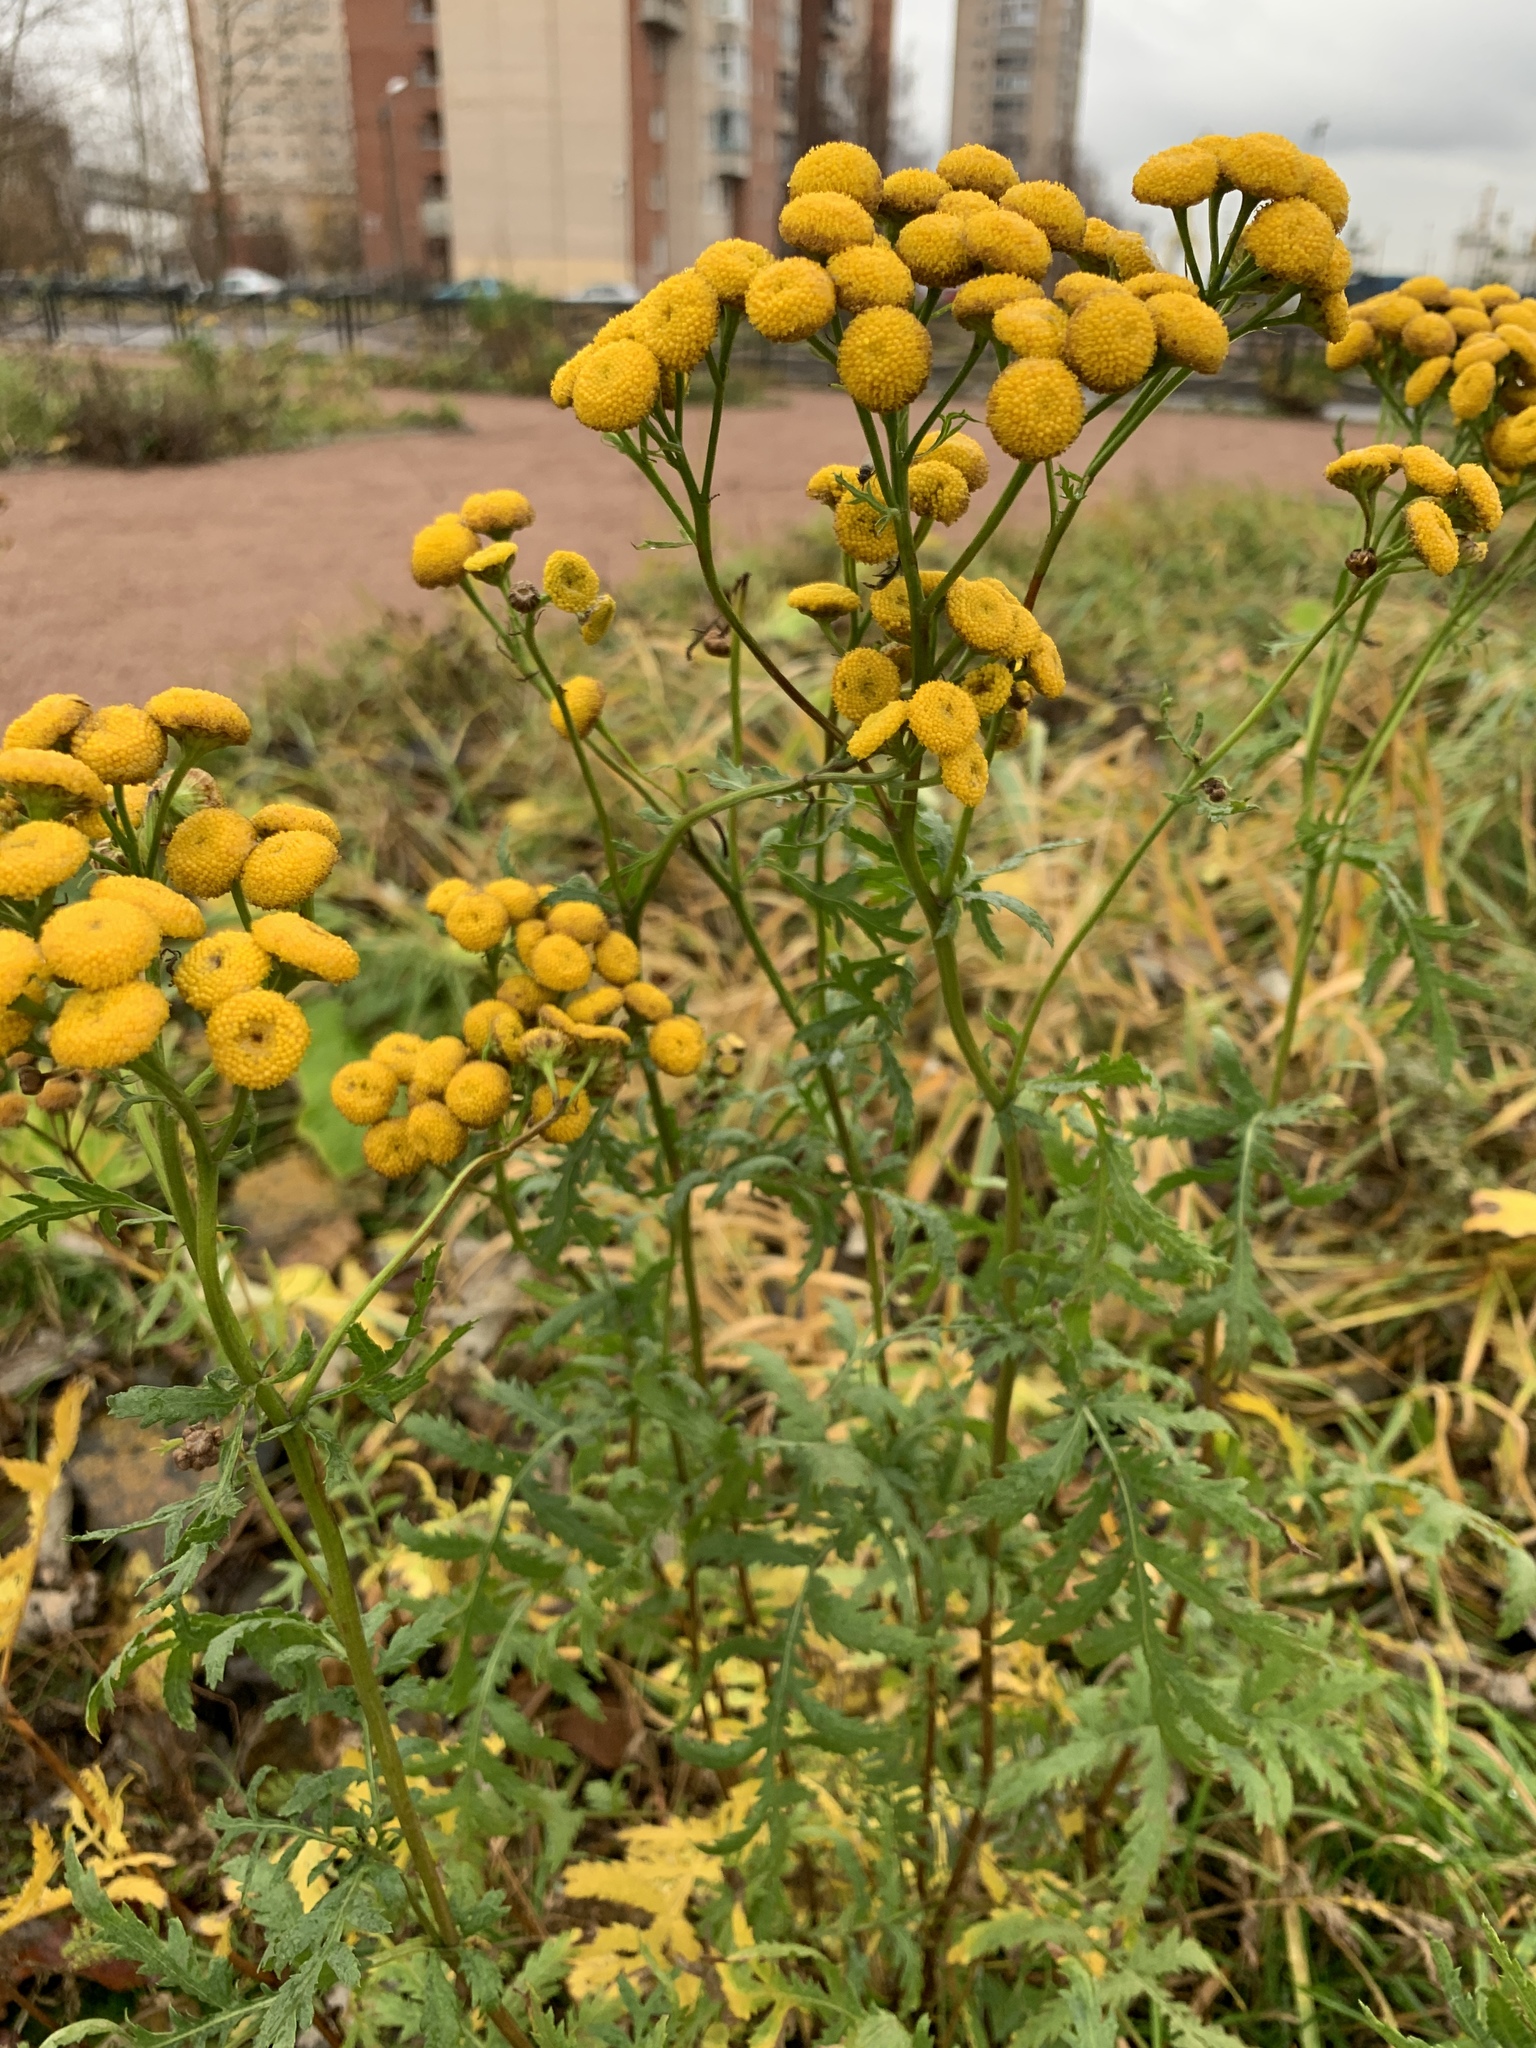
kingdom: Plantae
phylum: Tracheophyta
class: Magnoliopsida
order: Asterales
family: Asteraceae
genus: Tanacetum
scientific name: Tanacetum vulgare
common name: Common tansy
